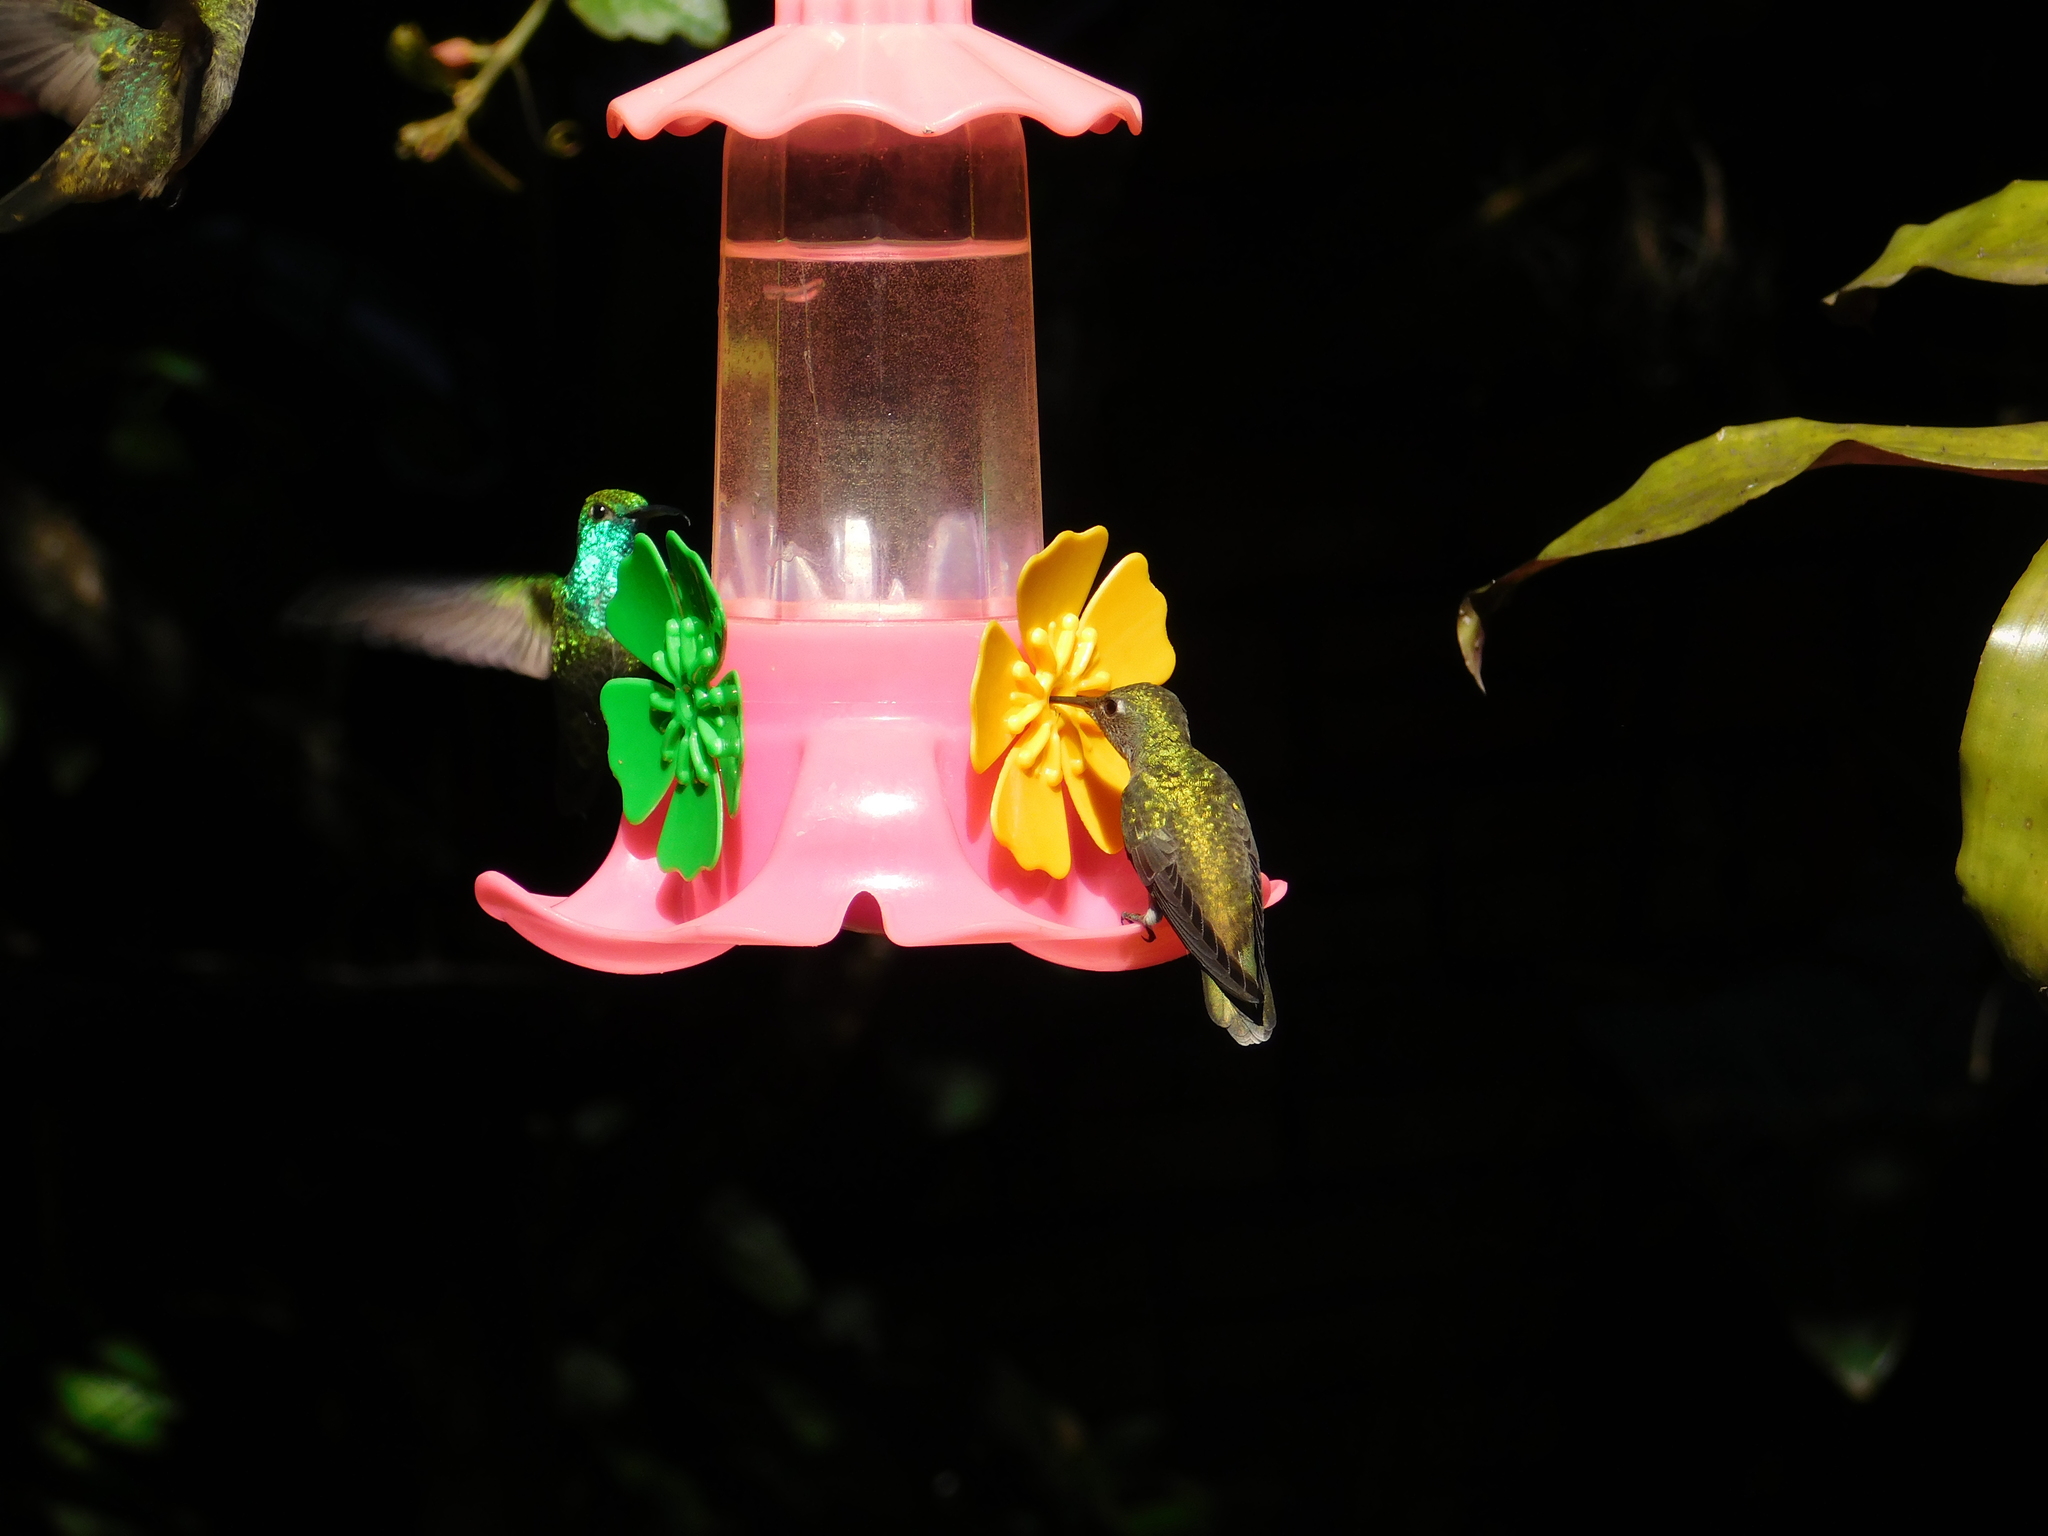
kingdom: Animalia
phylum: Chordata
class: Aves
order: Apodiformes
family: Trochilidae
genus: Chrysuronia
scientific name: Chrysuronia versicolor
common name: Versicolored emerald
